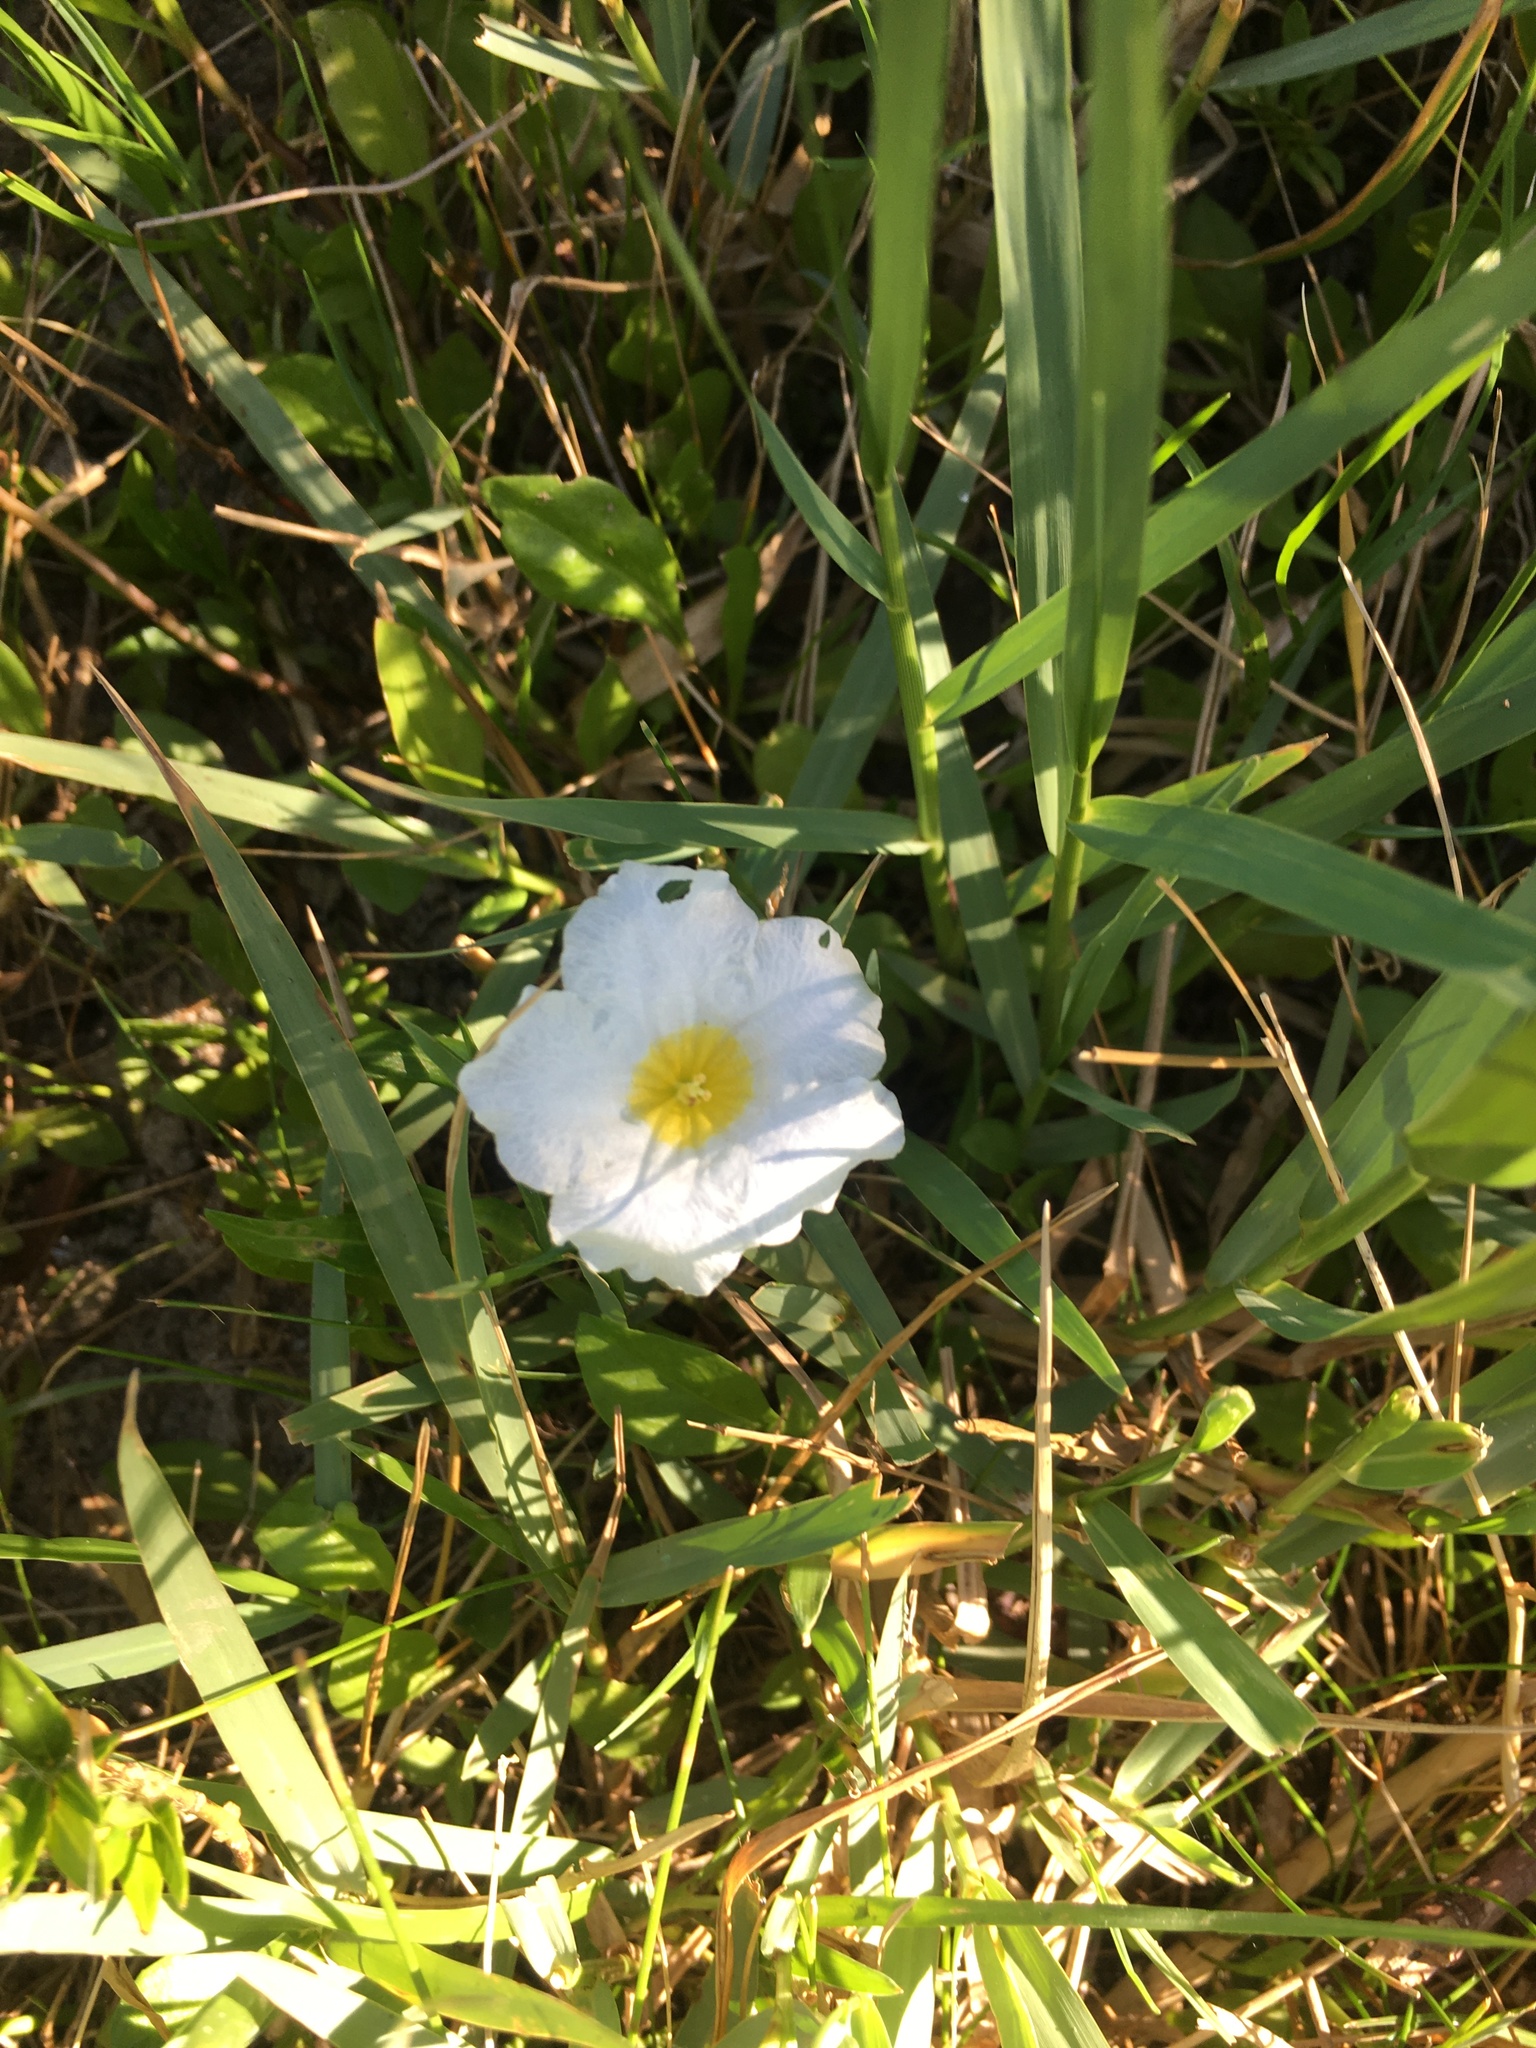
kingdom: Plantae
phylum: Tracheophyta
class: Magnoliopsida
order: Solanales
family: Solanaceae
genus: Nierembergia
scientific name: Nierembergia rivularis
